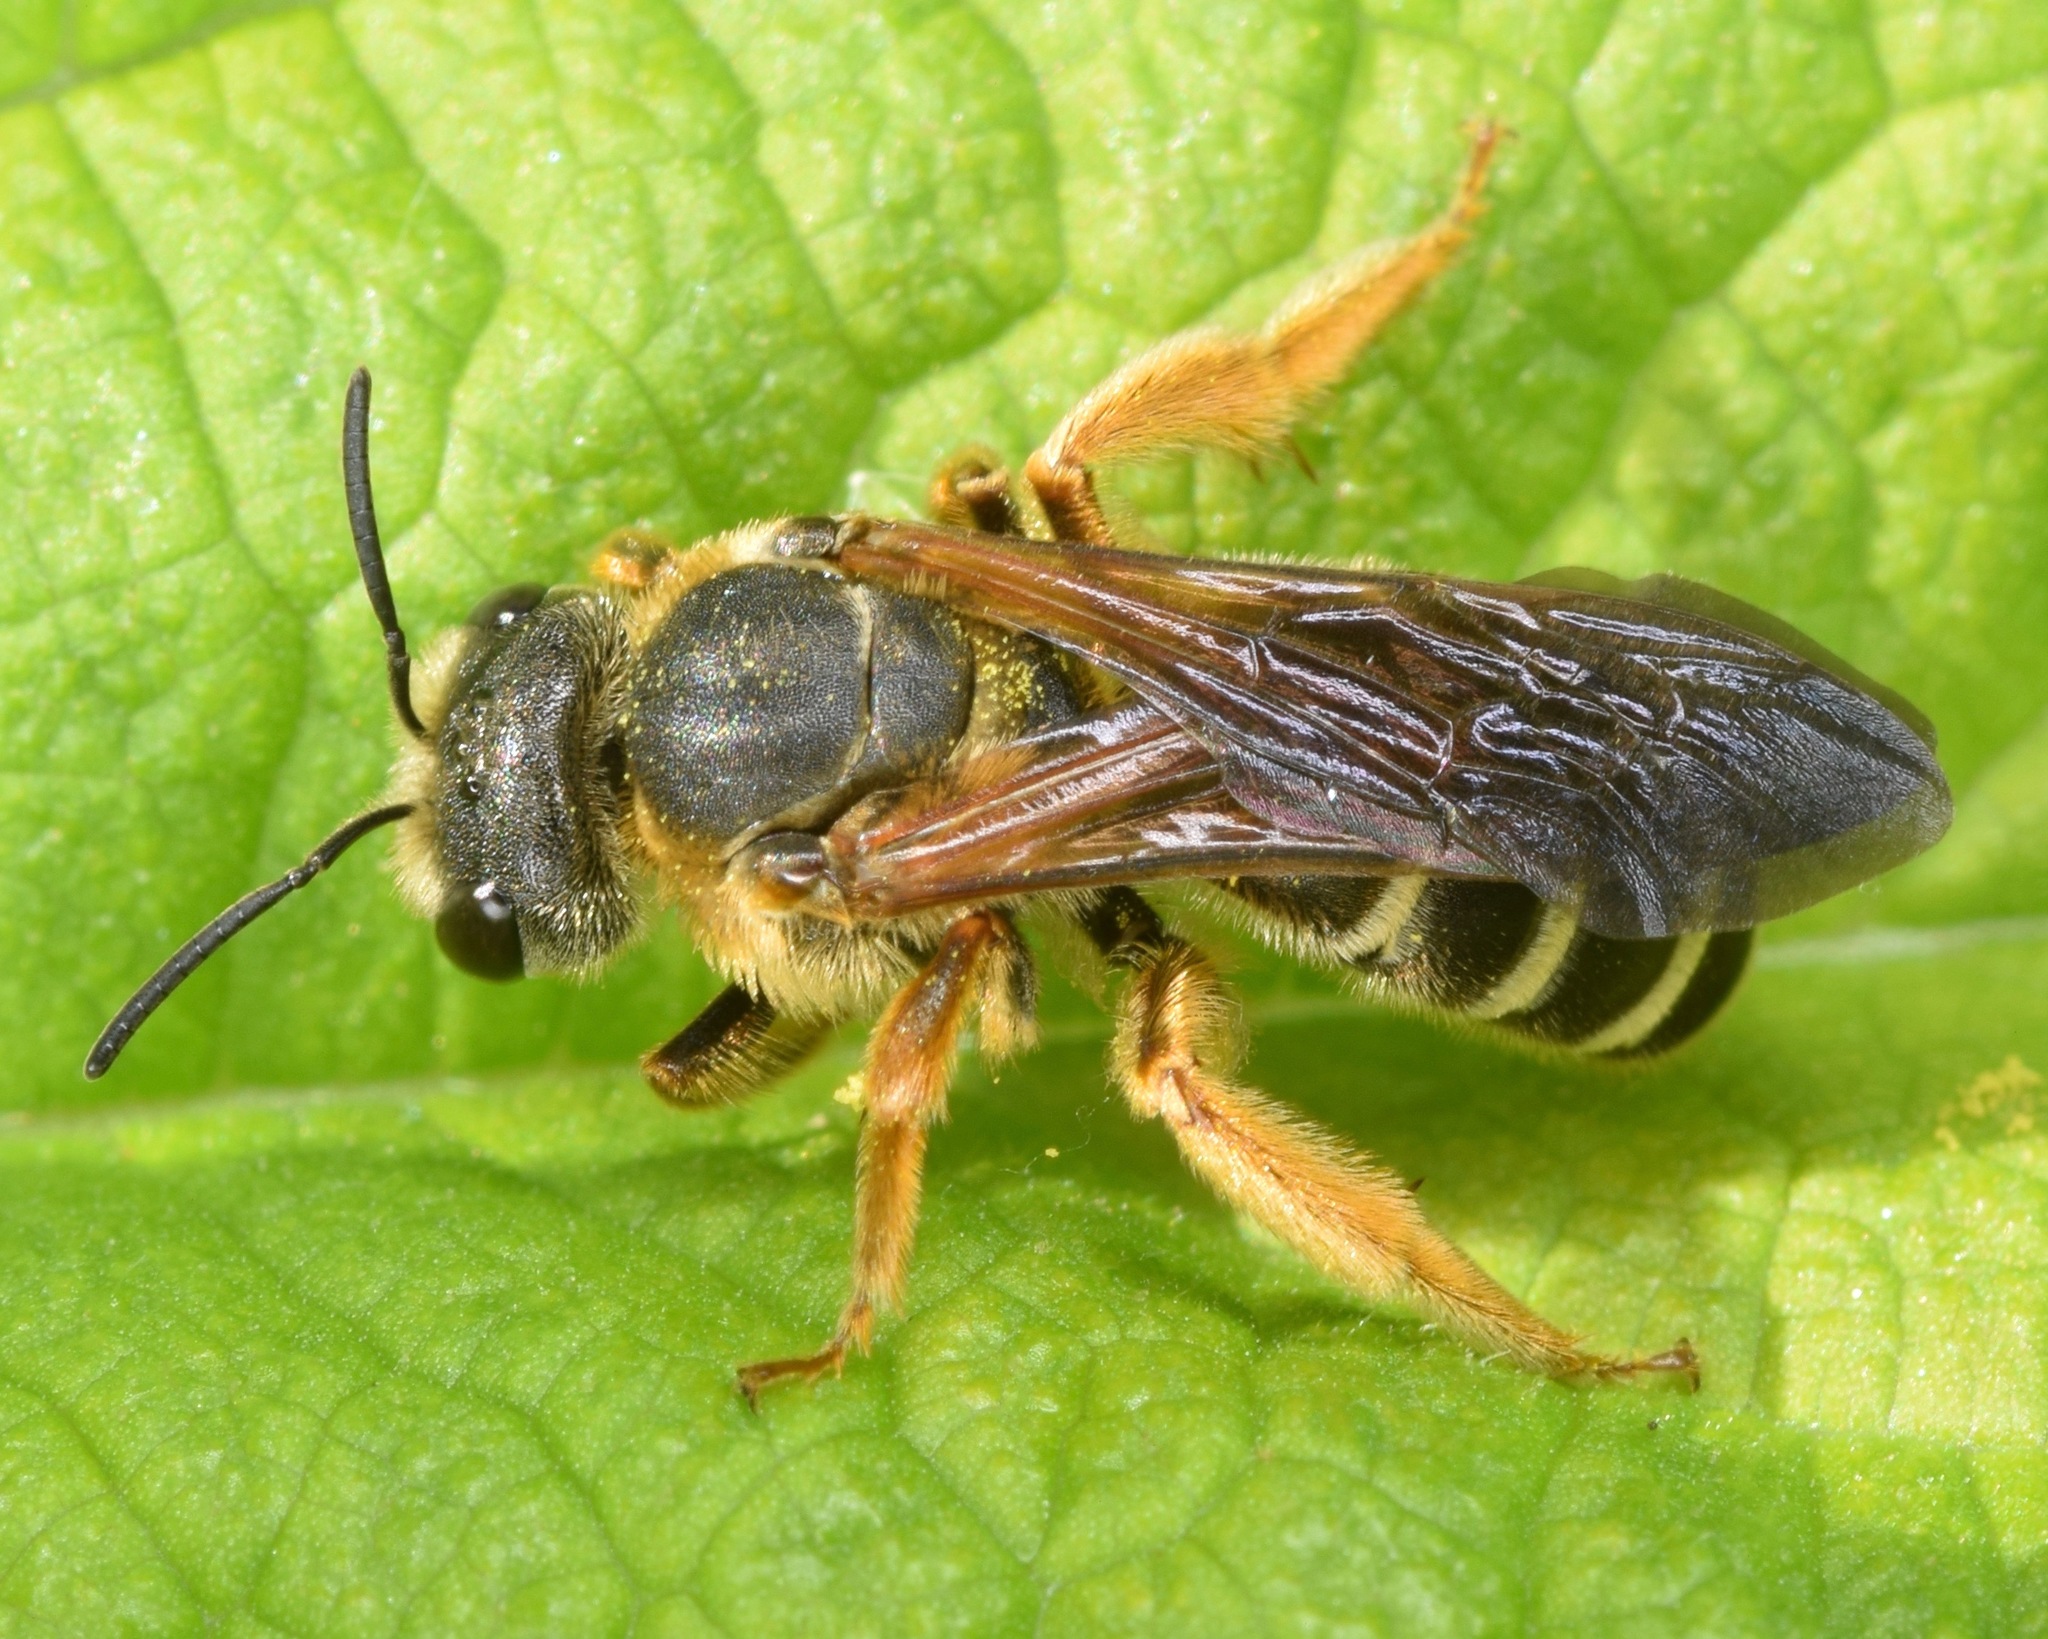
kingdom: Animalia
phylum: Arthropoda
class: Insecta
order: Hymenoptera
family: Halictidae
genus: Halictus
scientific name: Halictus parallelus
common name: Parallel-striped sweat bee
